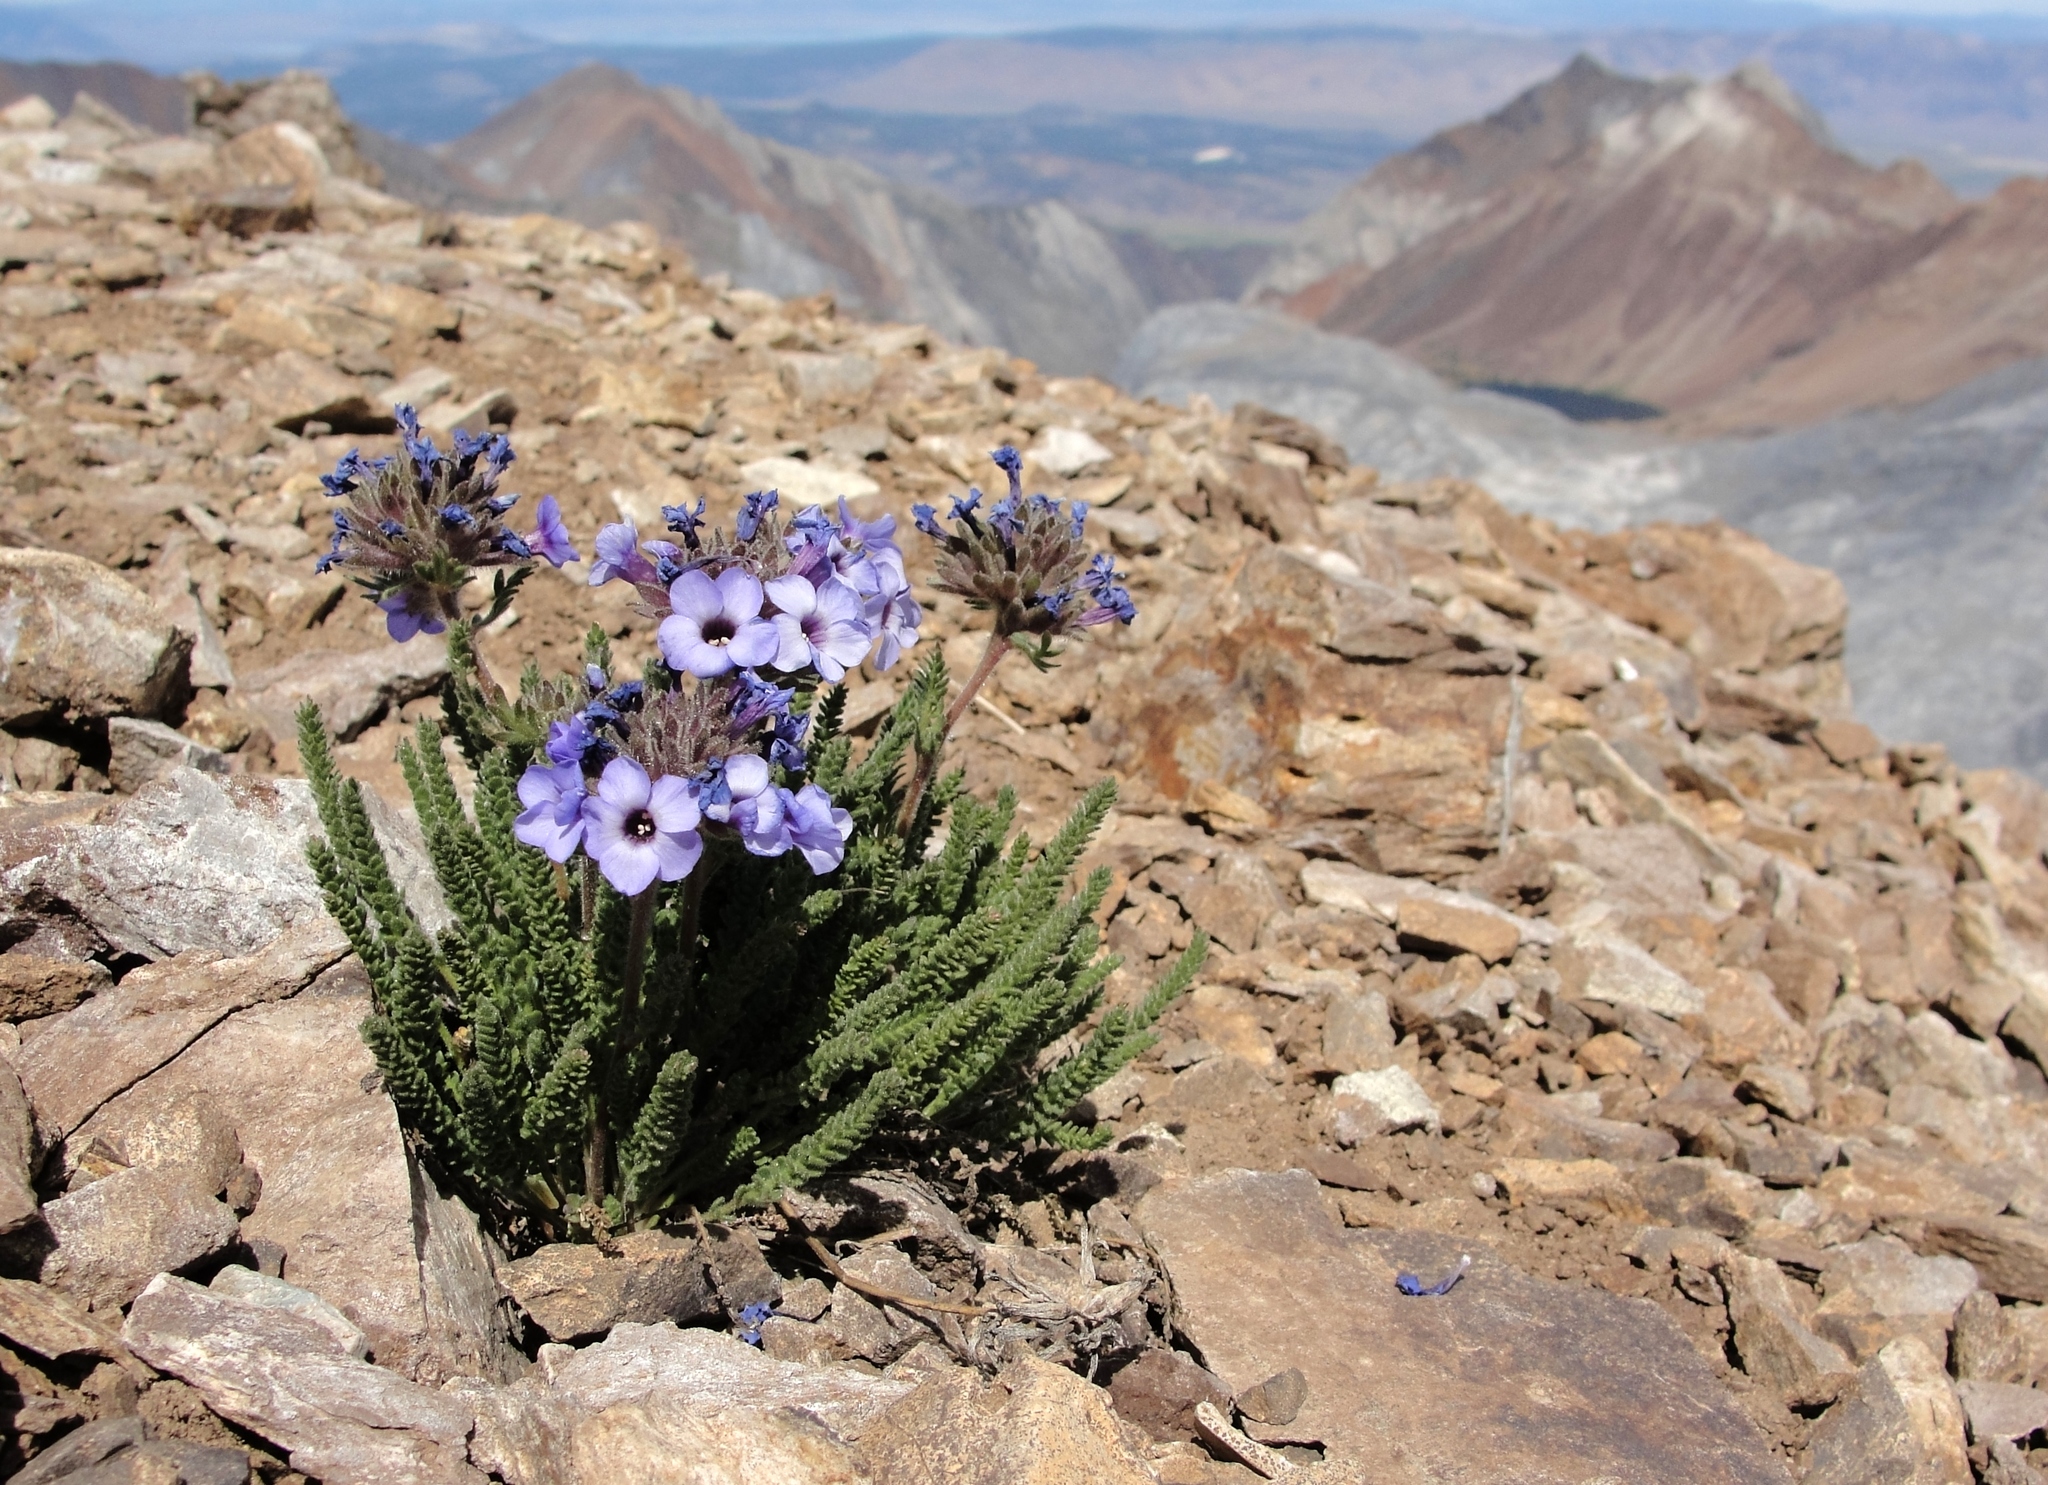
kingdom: Plantae
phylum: Tracheophyta
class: Magnoliopsida
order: Ericales
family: Polemoniaceae
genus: Polemonium
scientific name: Polemonium eximium
